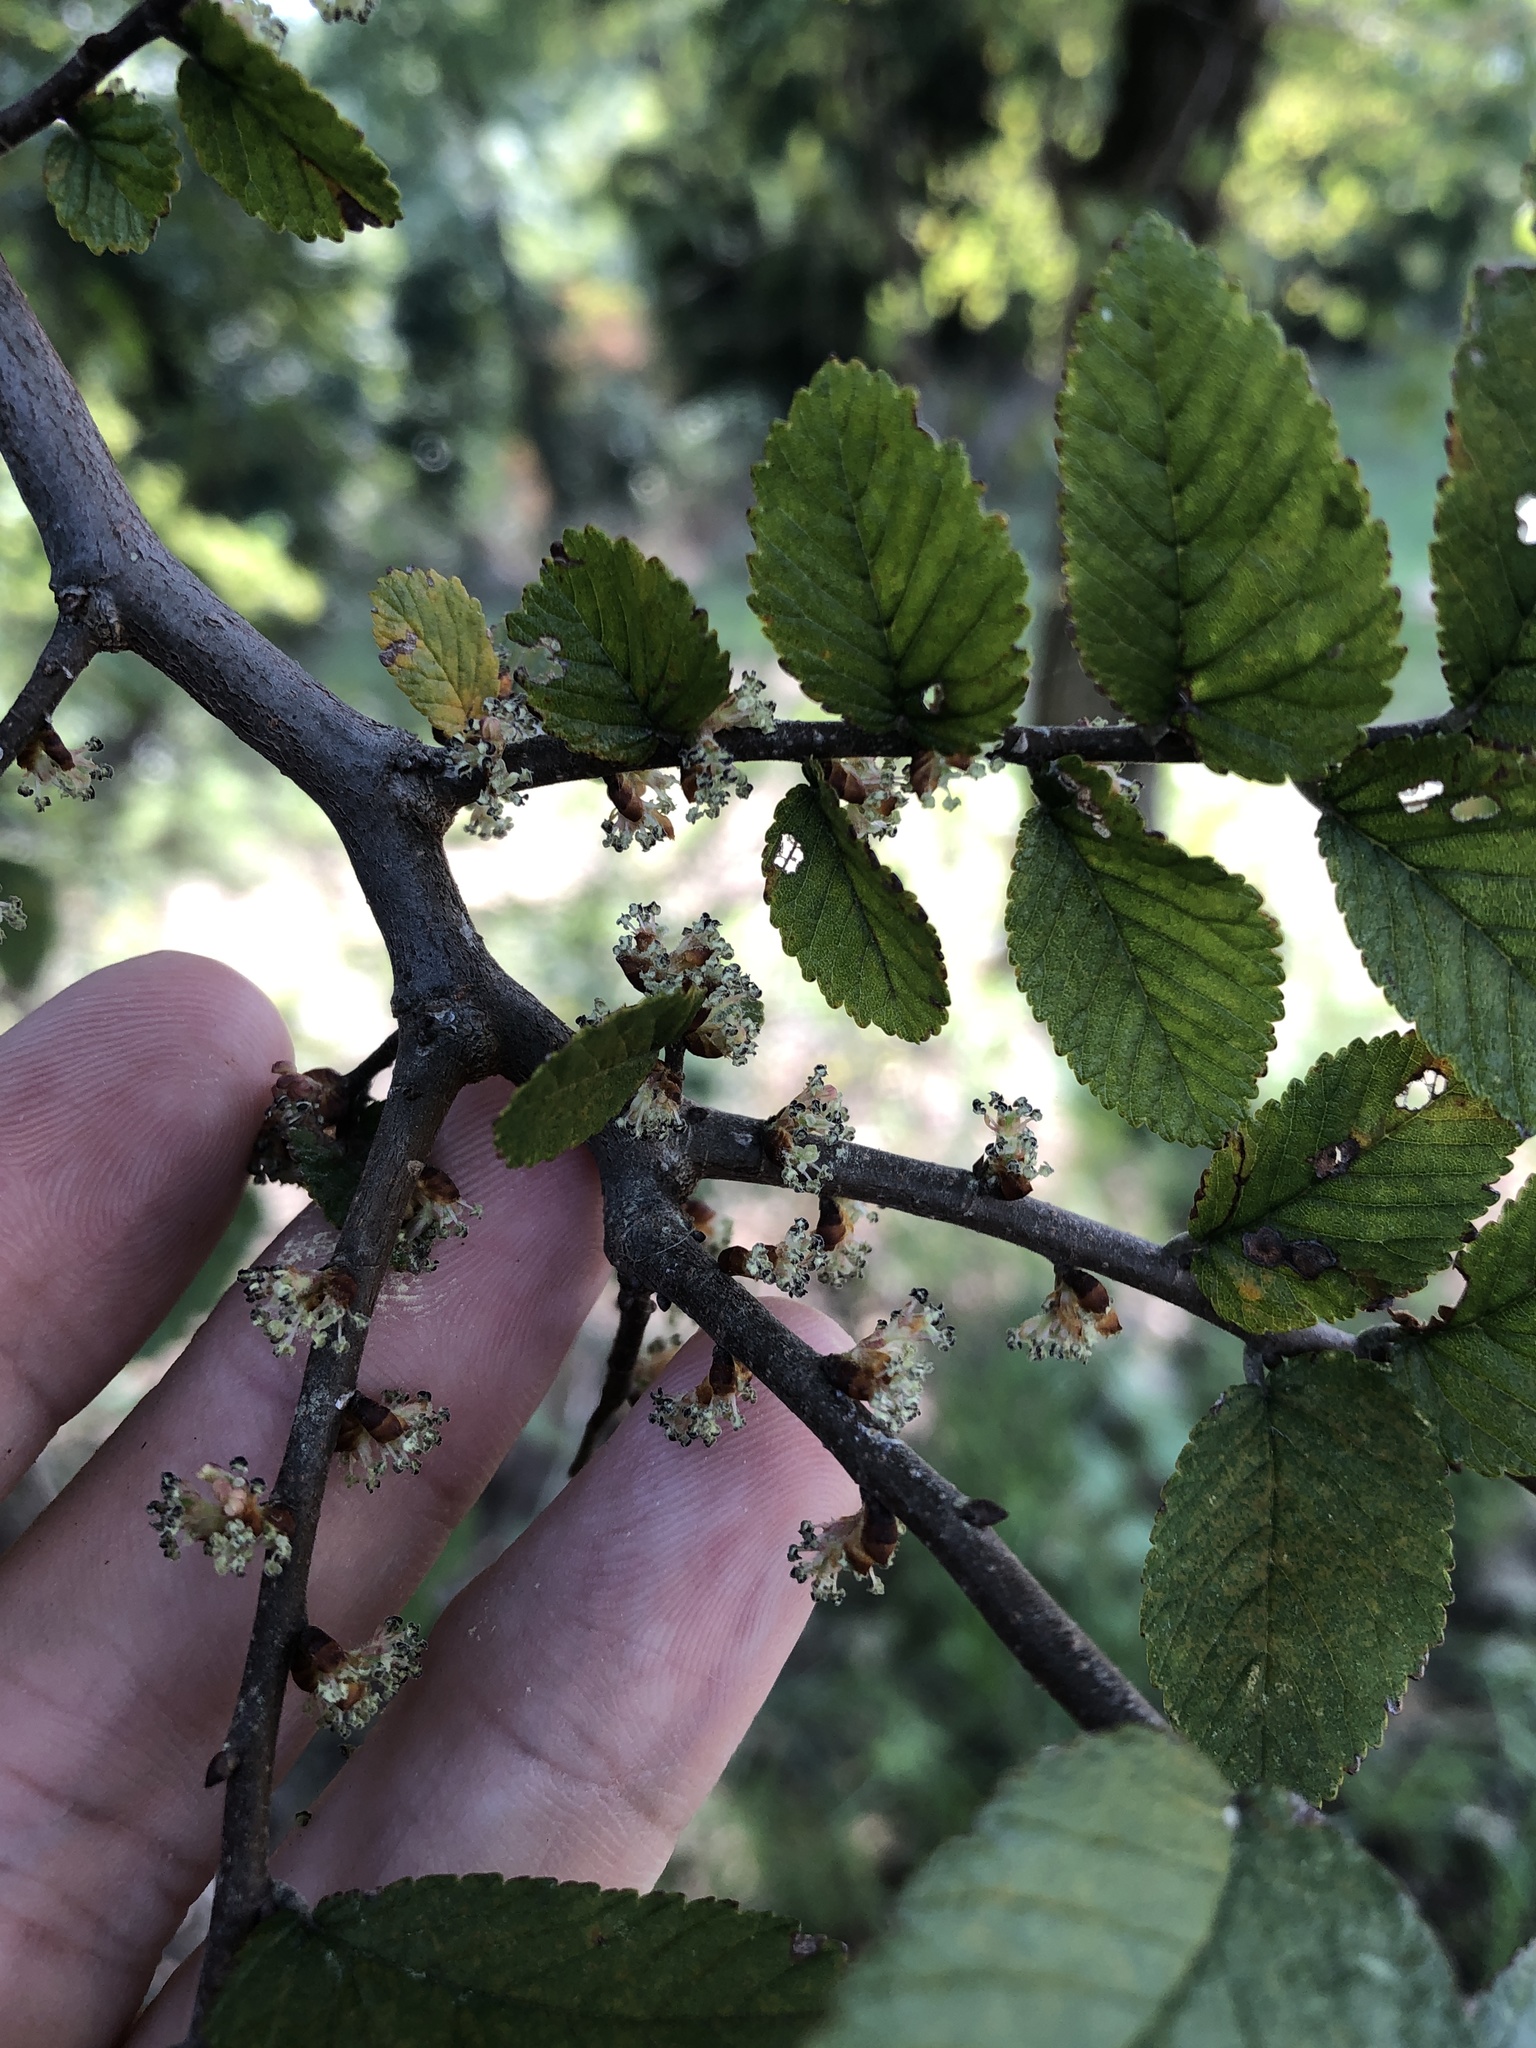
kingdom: Plantae
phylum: Tracheophyta
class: Magnoliopsida
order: Rosales
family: Ulmaceae
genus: Ulmus
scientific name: Ulmus crassifolia
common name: Basket elm
